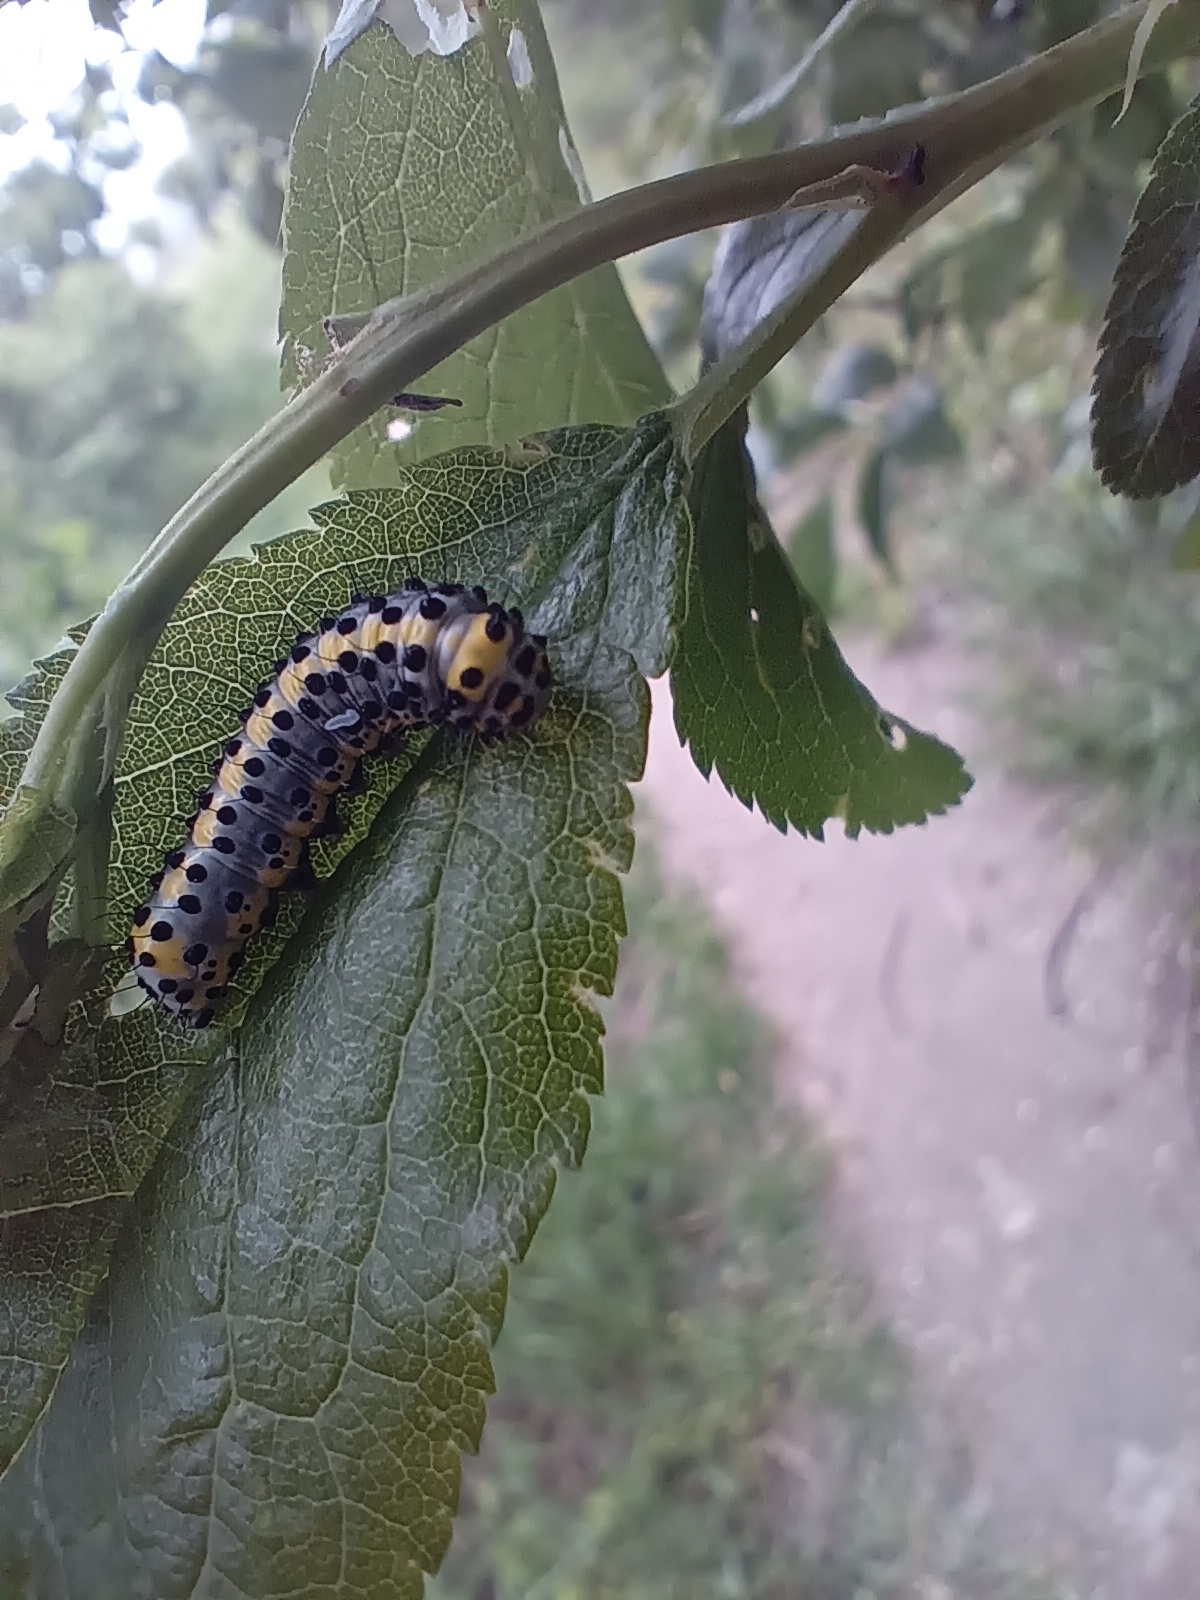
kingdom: Animalia
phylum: Arthropoda
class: Insecta
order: Lepidoptera
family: Noctuidae
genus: Diloba
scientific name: Diloba caeruleocephala
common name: Figure of eight
